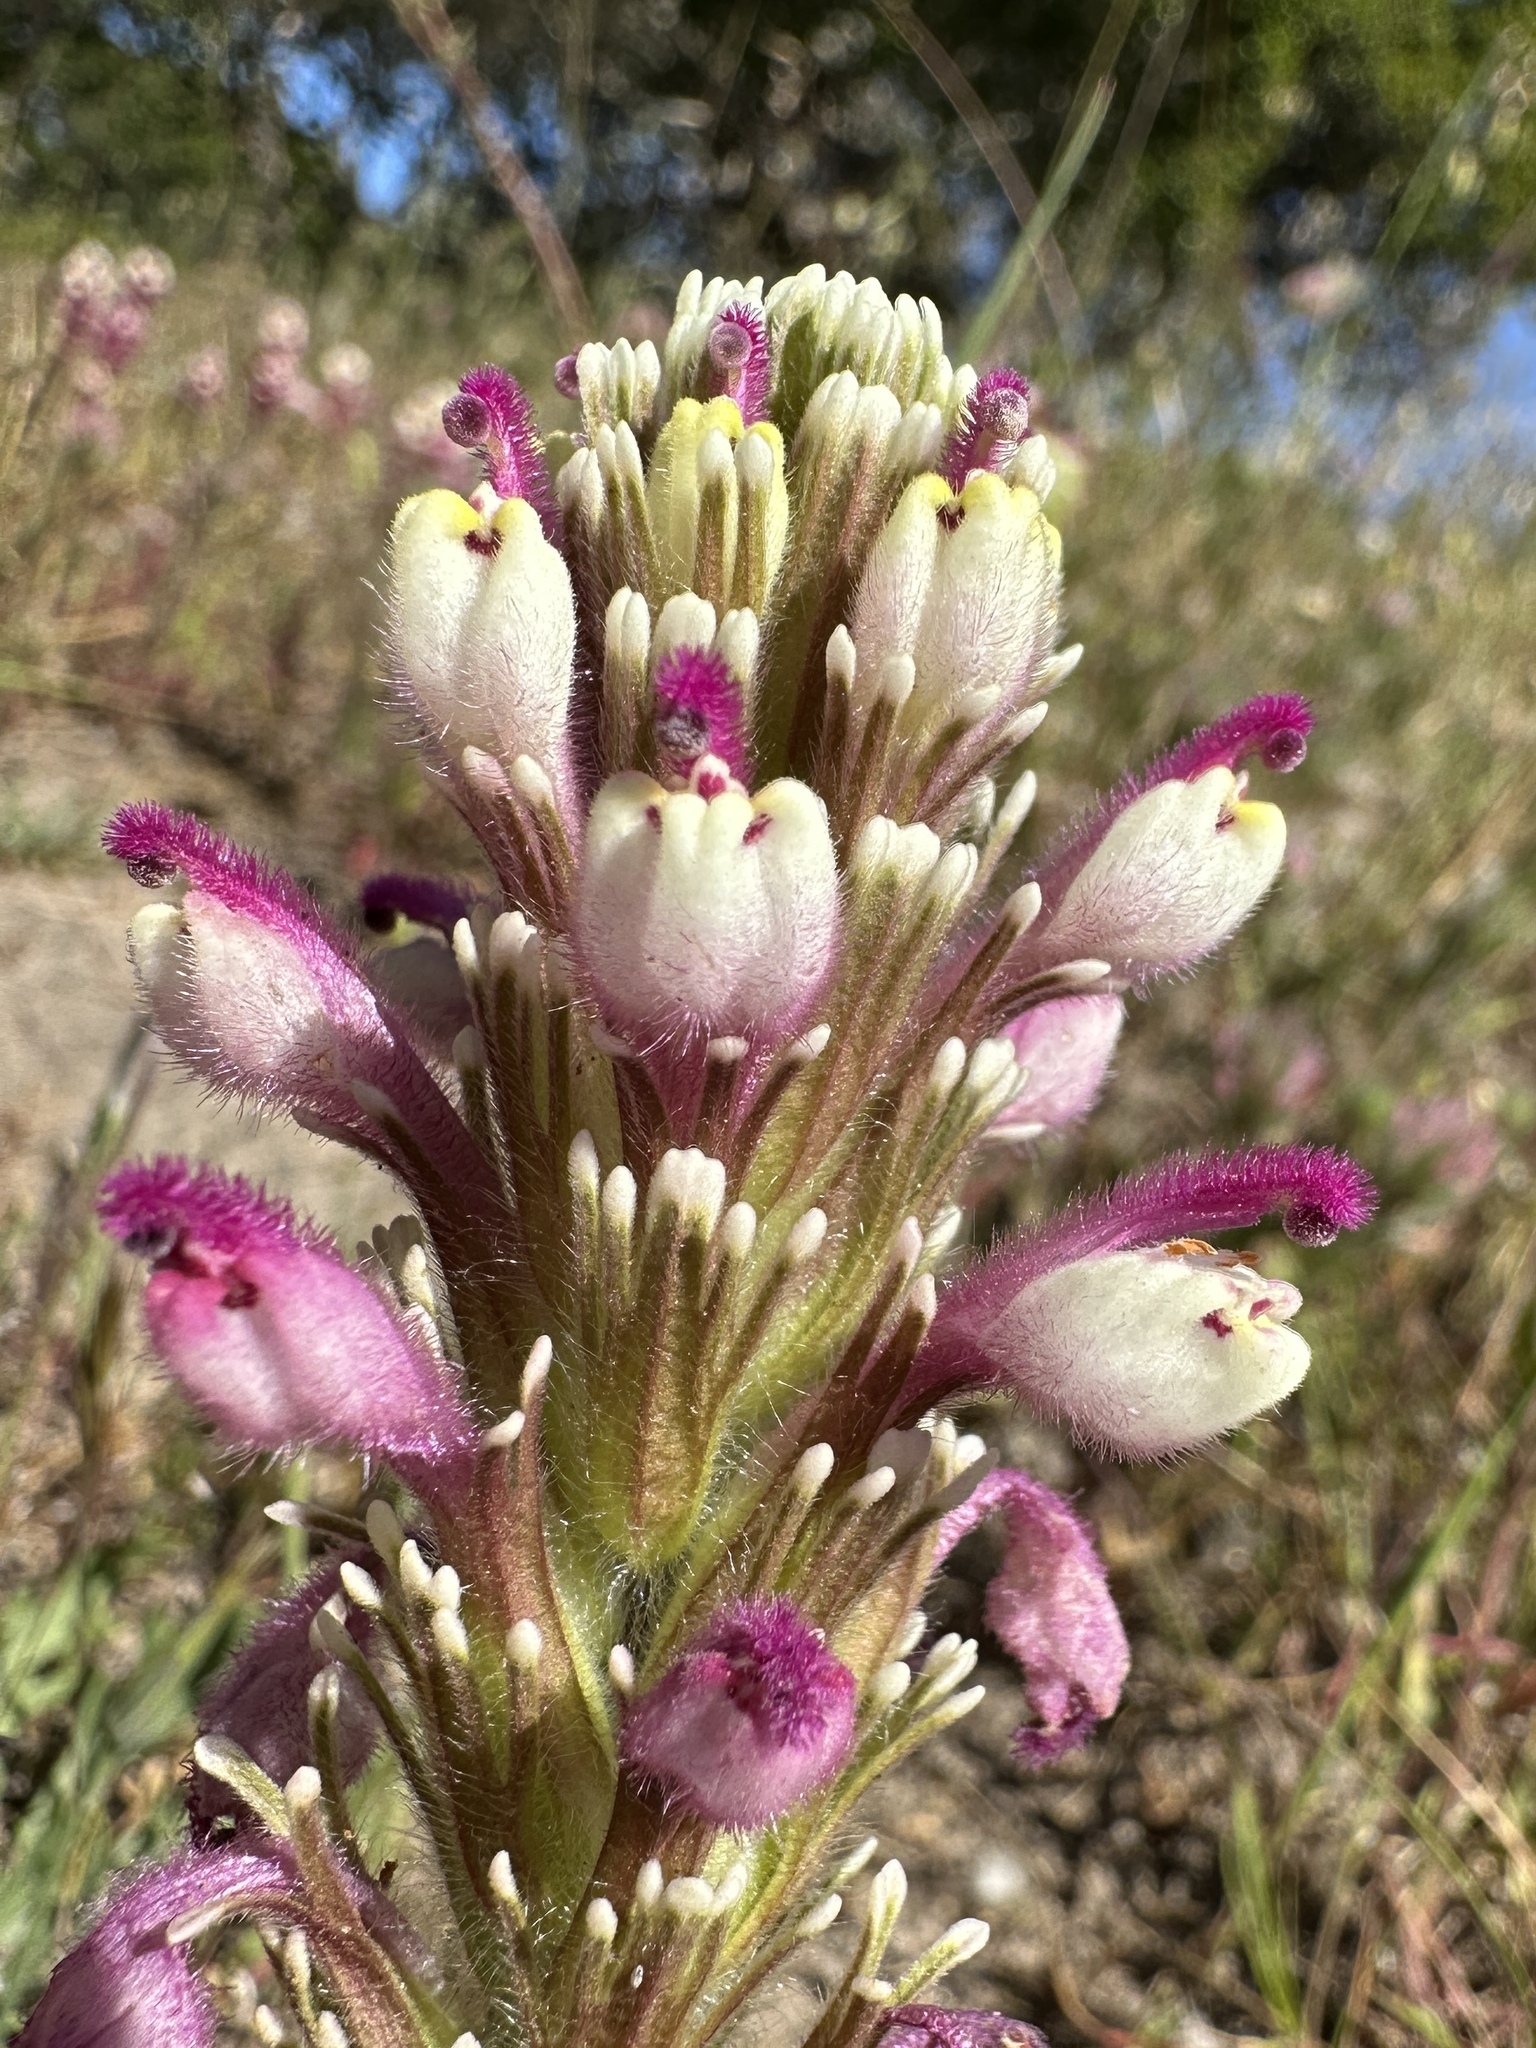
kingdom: Plantae
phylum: Tracheophyta
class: Magnoliopsida
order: Lamiales
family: Orobanchaceae
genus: Castilleja
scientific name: Castilleja exserta
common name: Purple owl-clover
